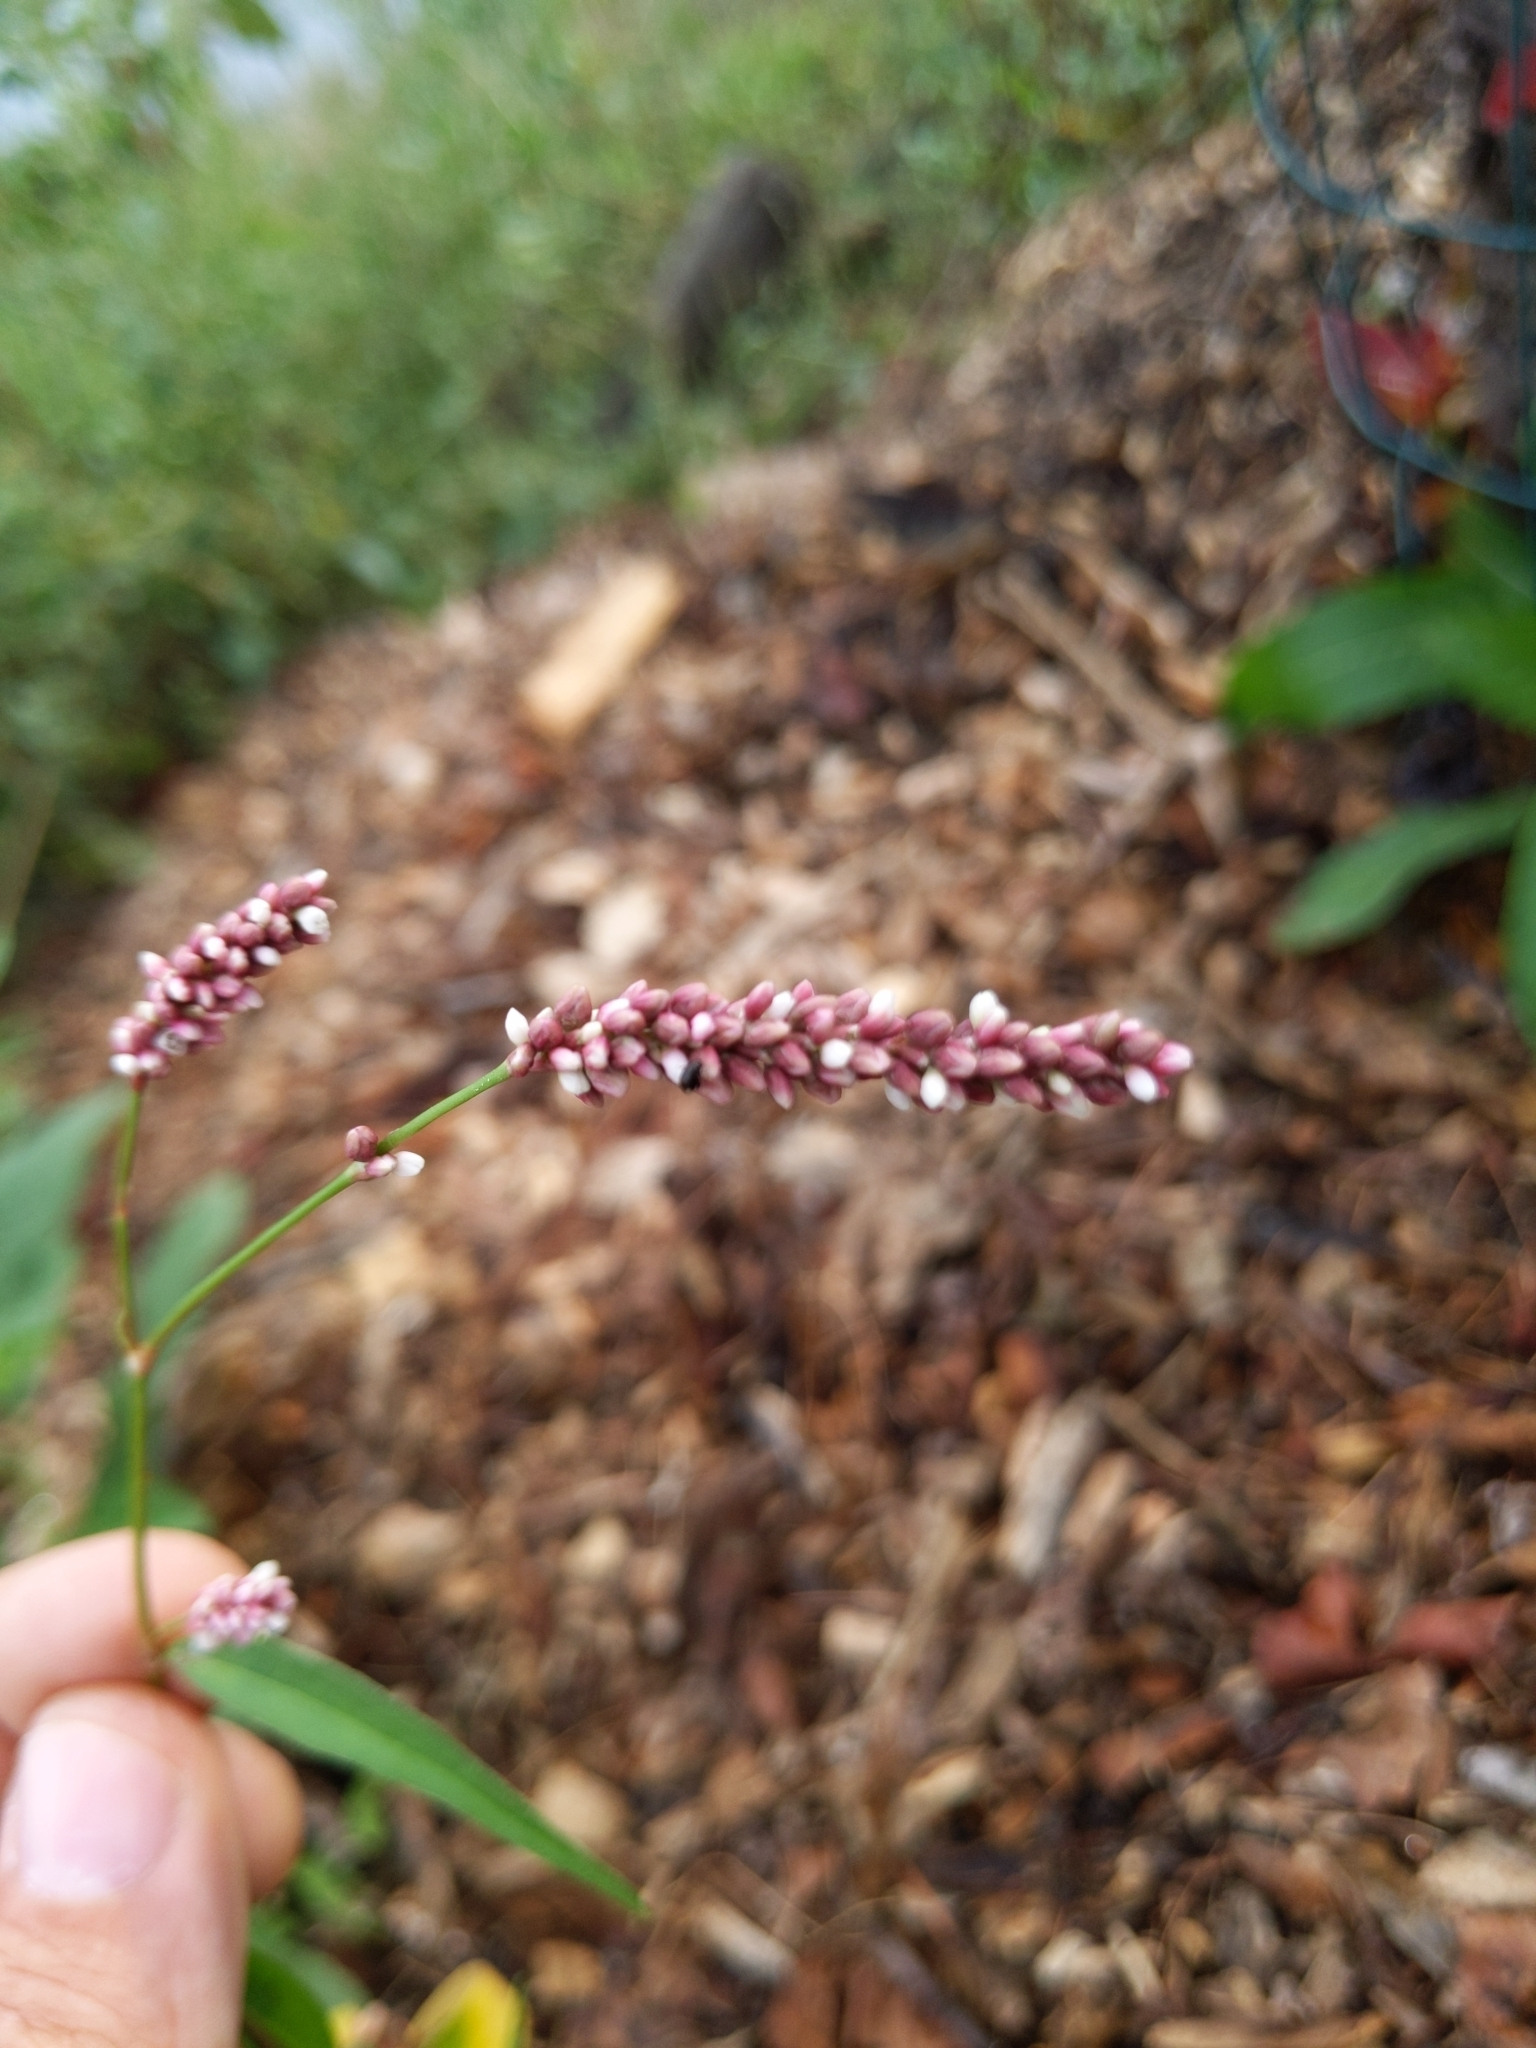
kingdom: Plantae
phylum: Tracheophyta
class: Magnoliopsida
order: Caryophyllales
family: Polygonaceae
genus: Persicaria
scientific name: Persicaria longiseta
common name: Bristly lady's-thumb
